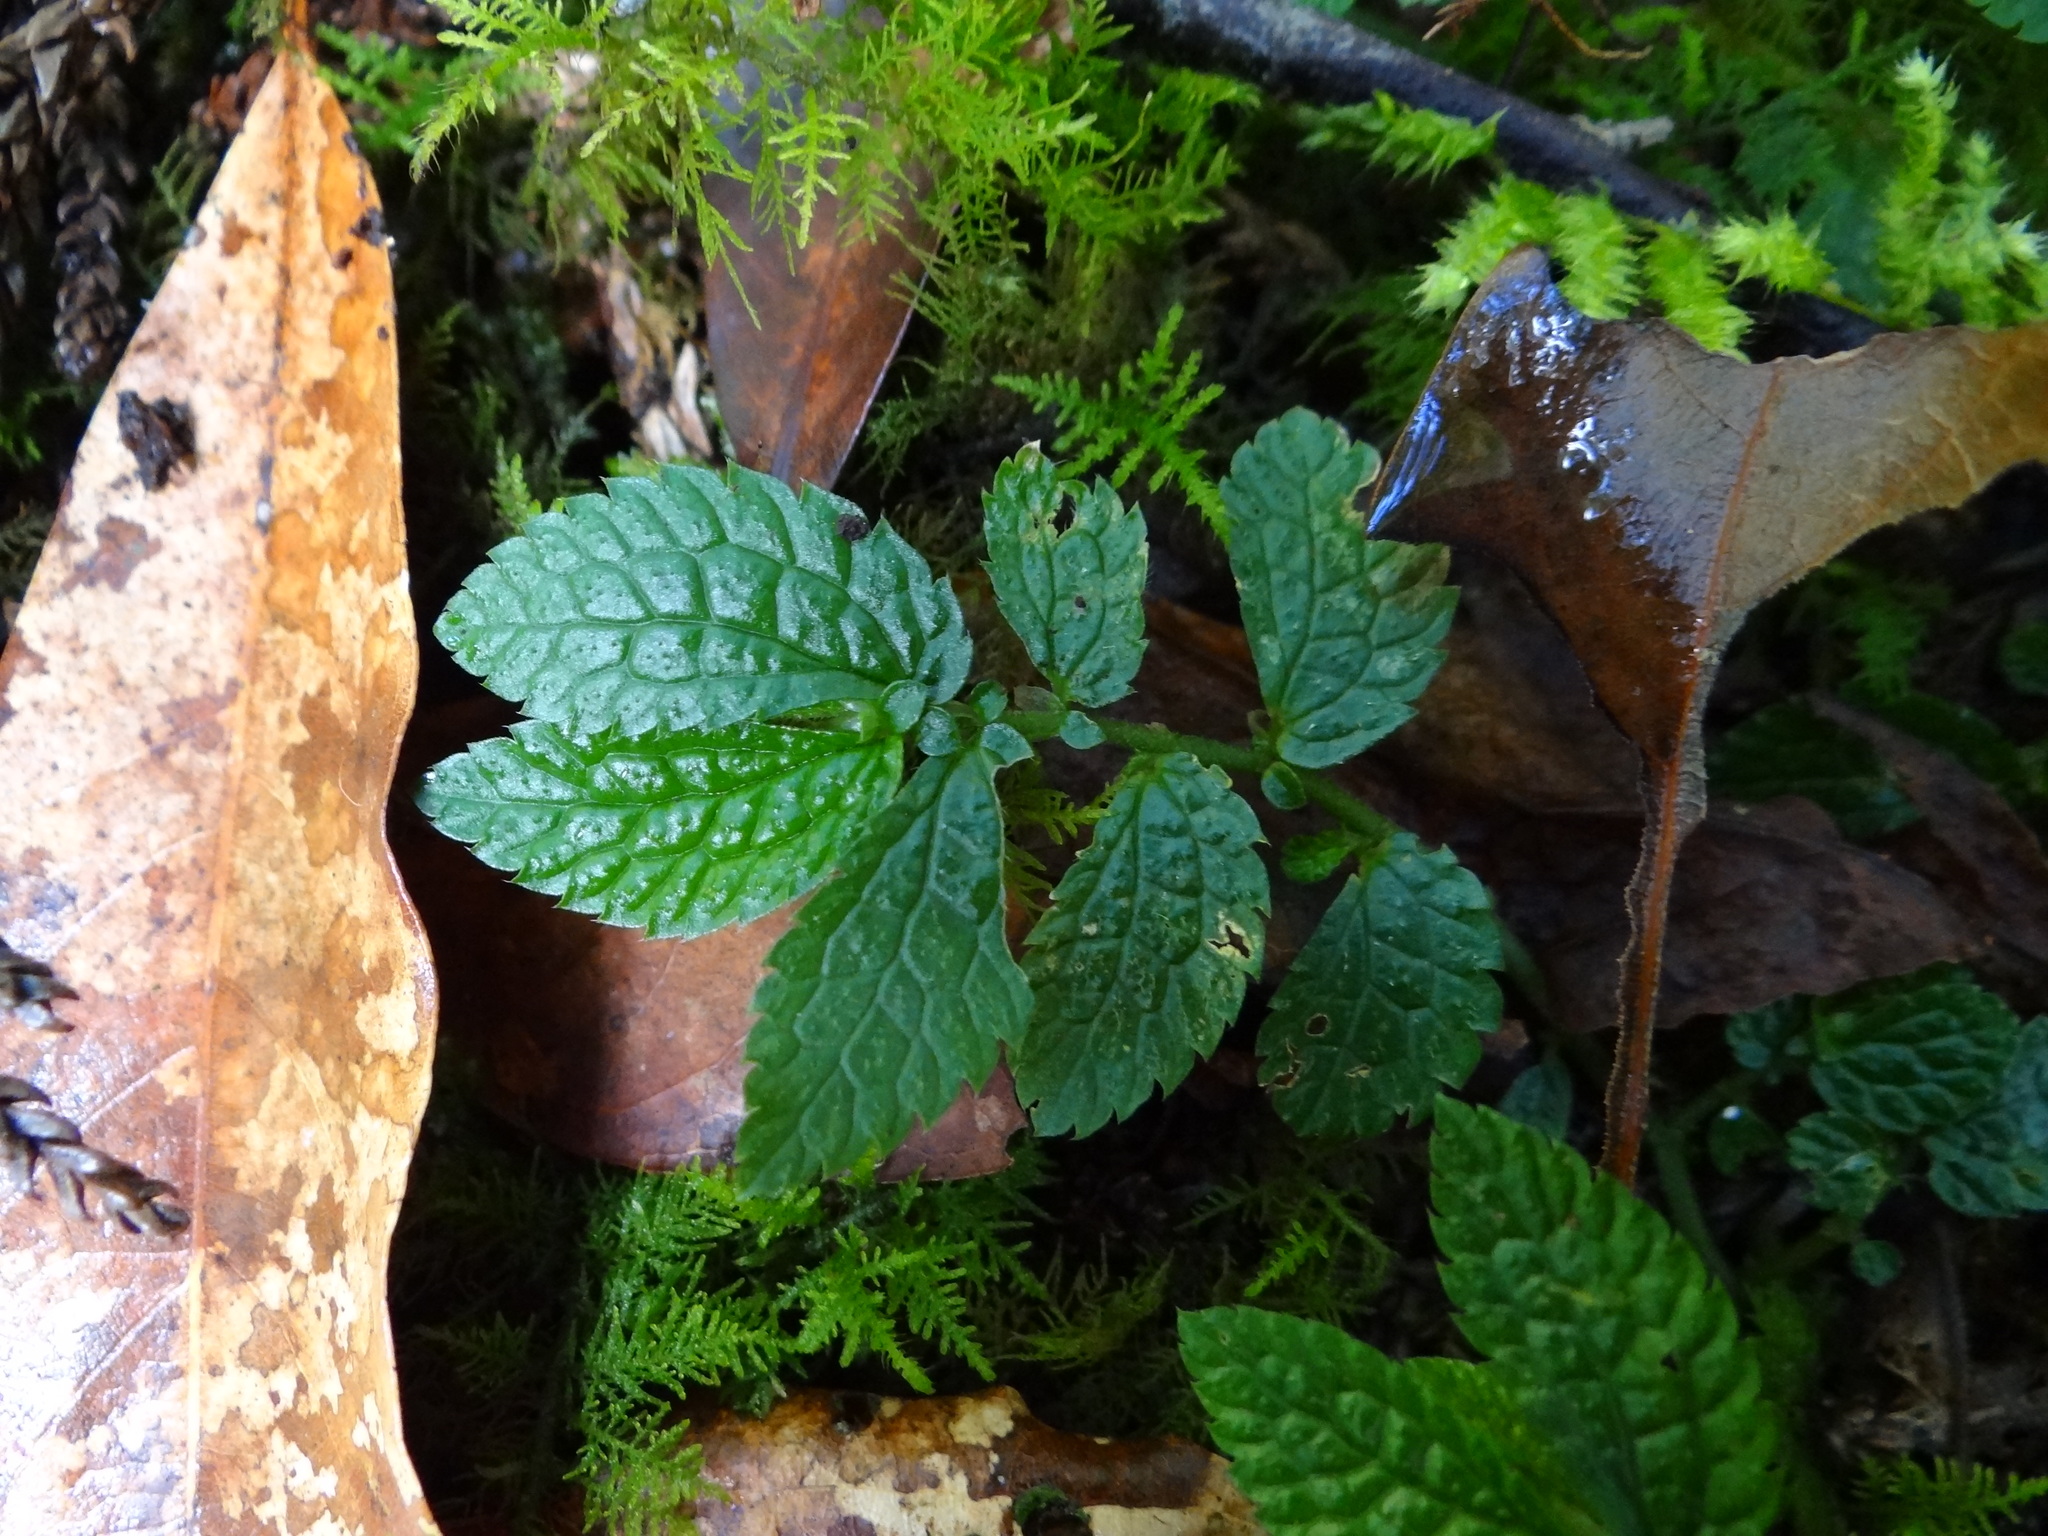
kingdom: Plantae
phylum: Tracheophyta
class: Magnoliopsida
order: Rosales
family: Urticaceae
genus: Elatostema
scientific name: Elatostema parvum
